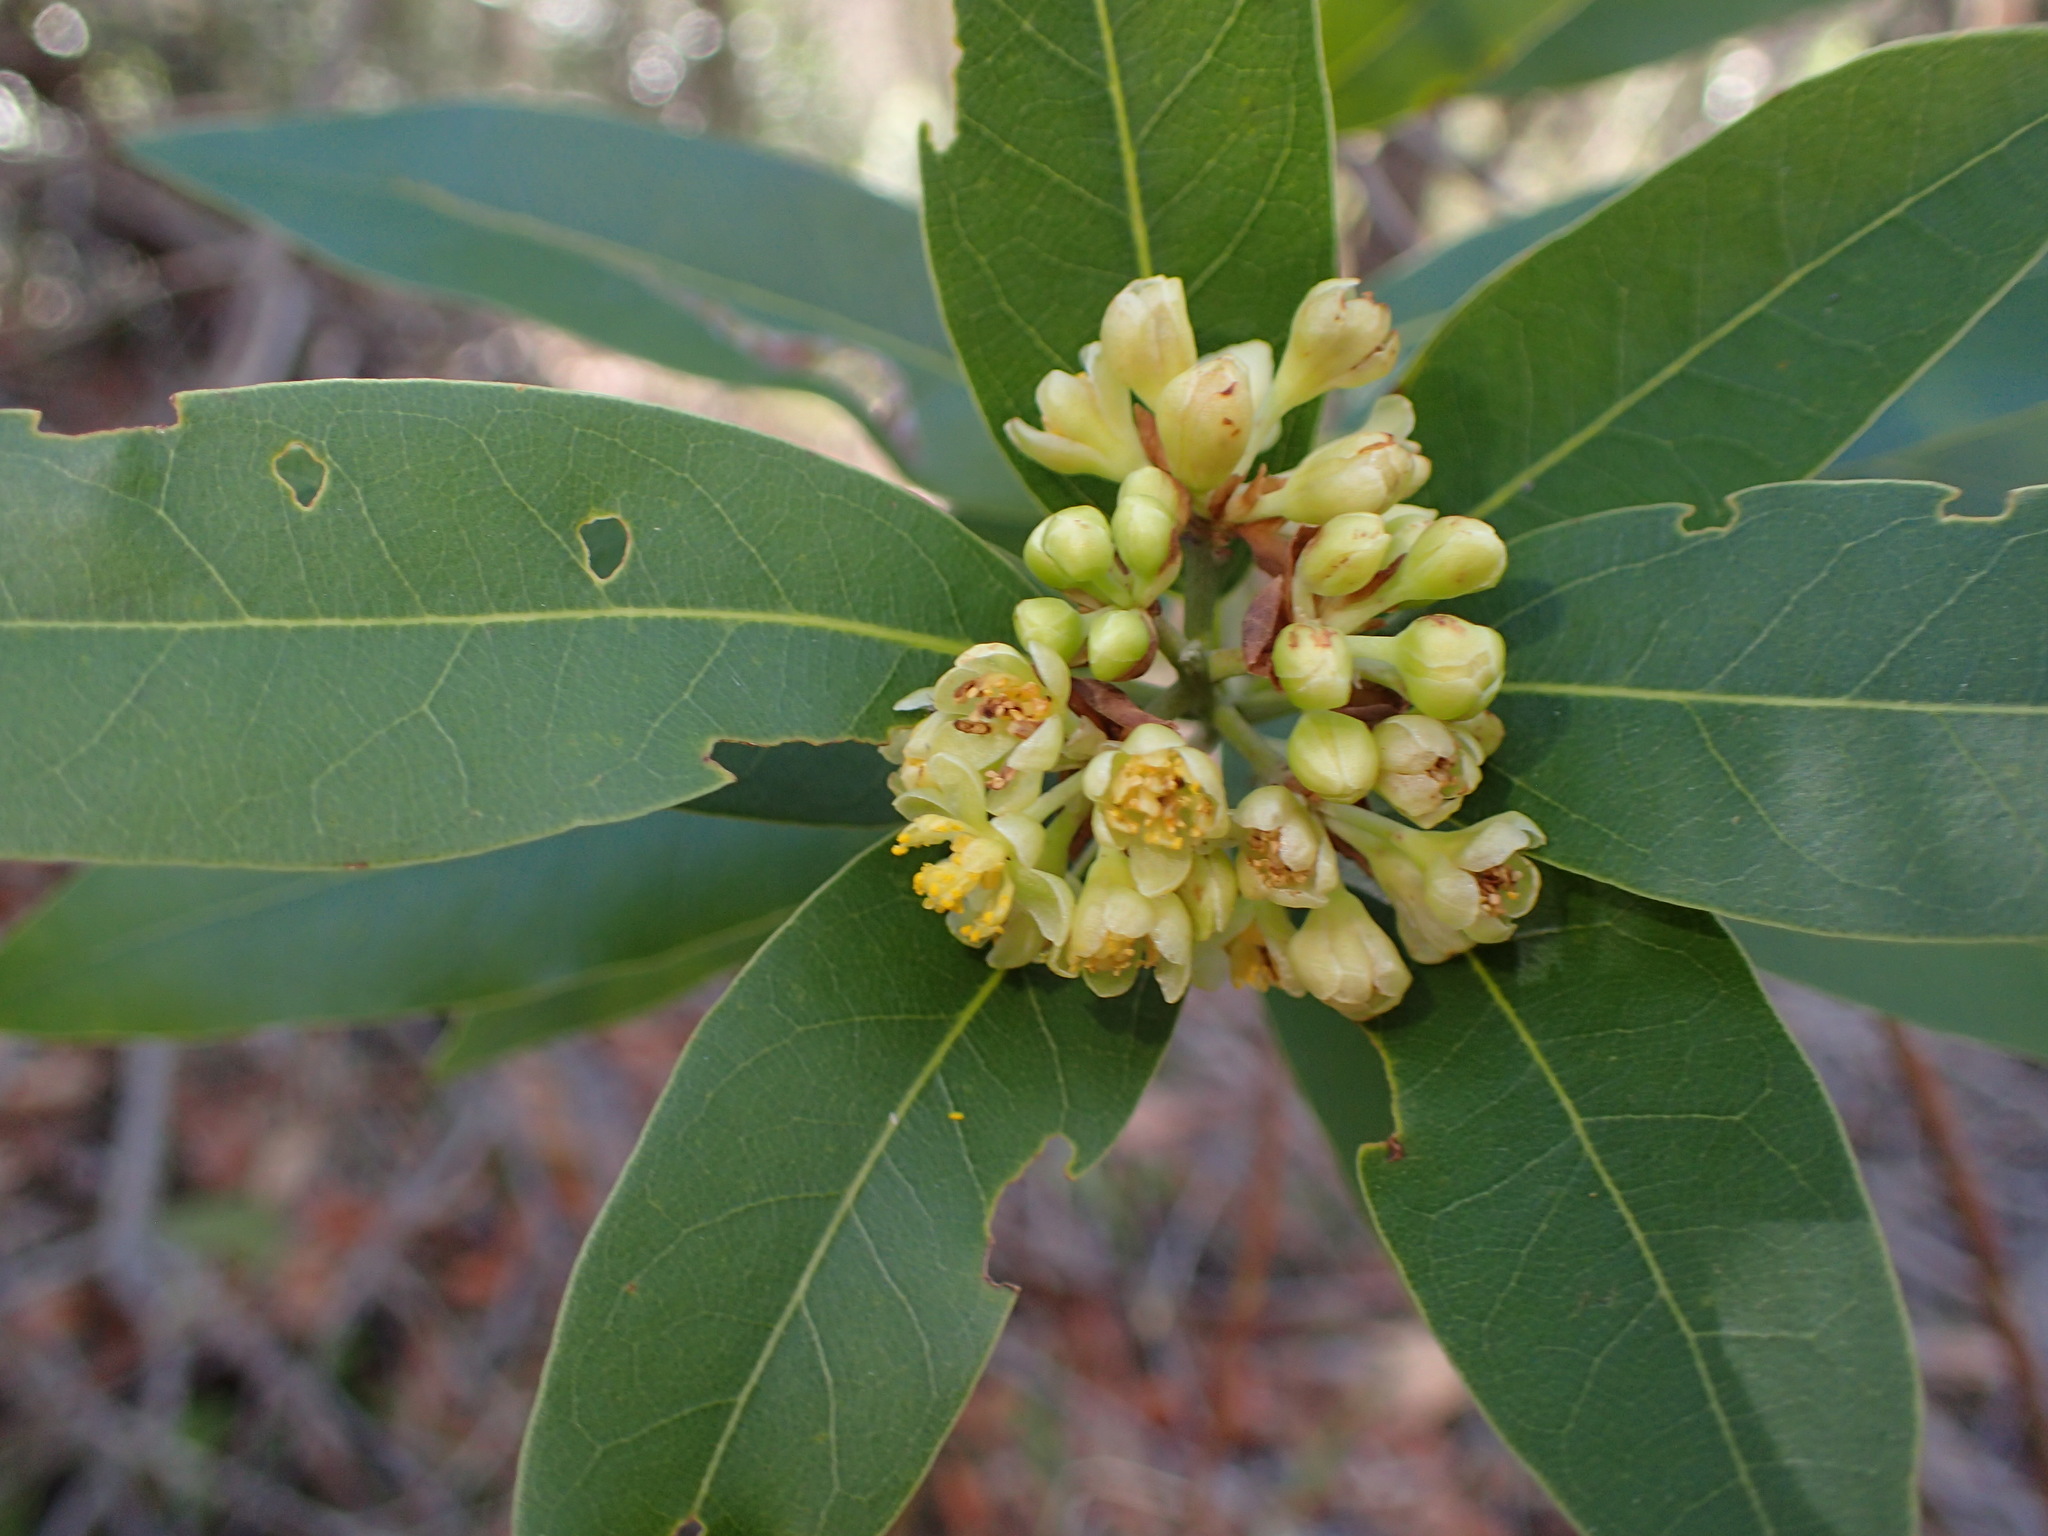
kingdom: Plantae
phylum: Tracheophyta
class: Magnoliopsida
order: Laurales
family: Lauraceae
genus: Umbellularia
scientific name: Umbellularia californica
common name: California bay
